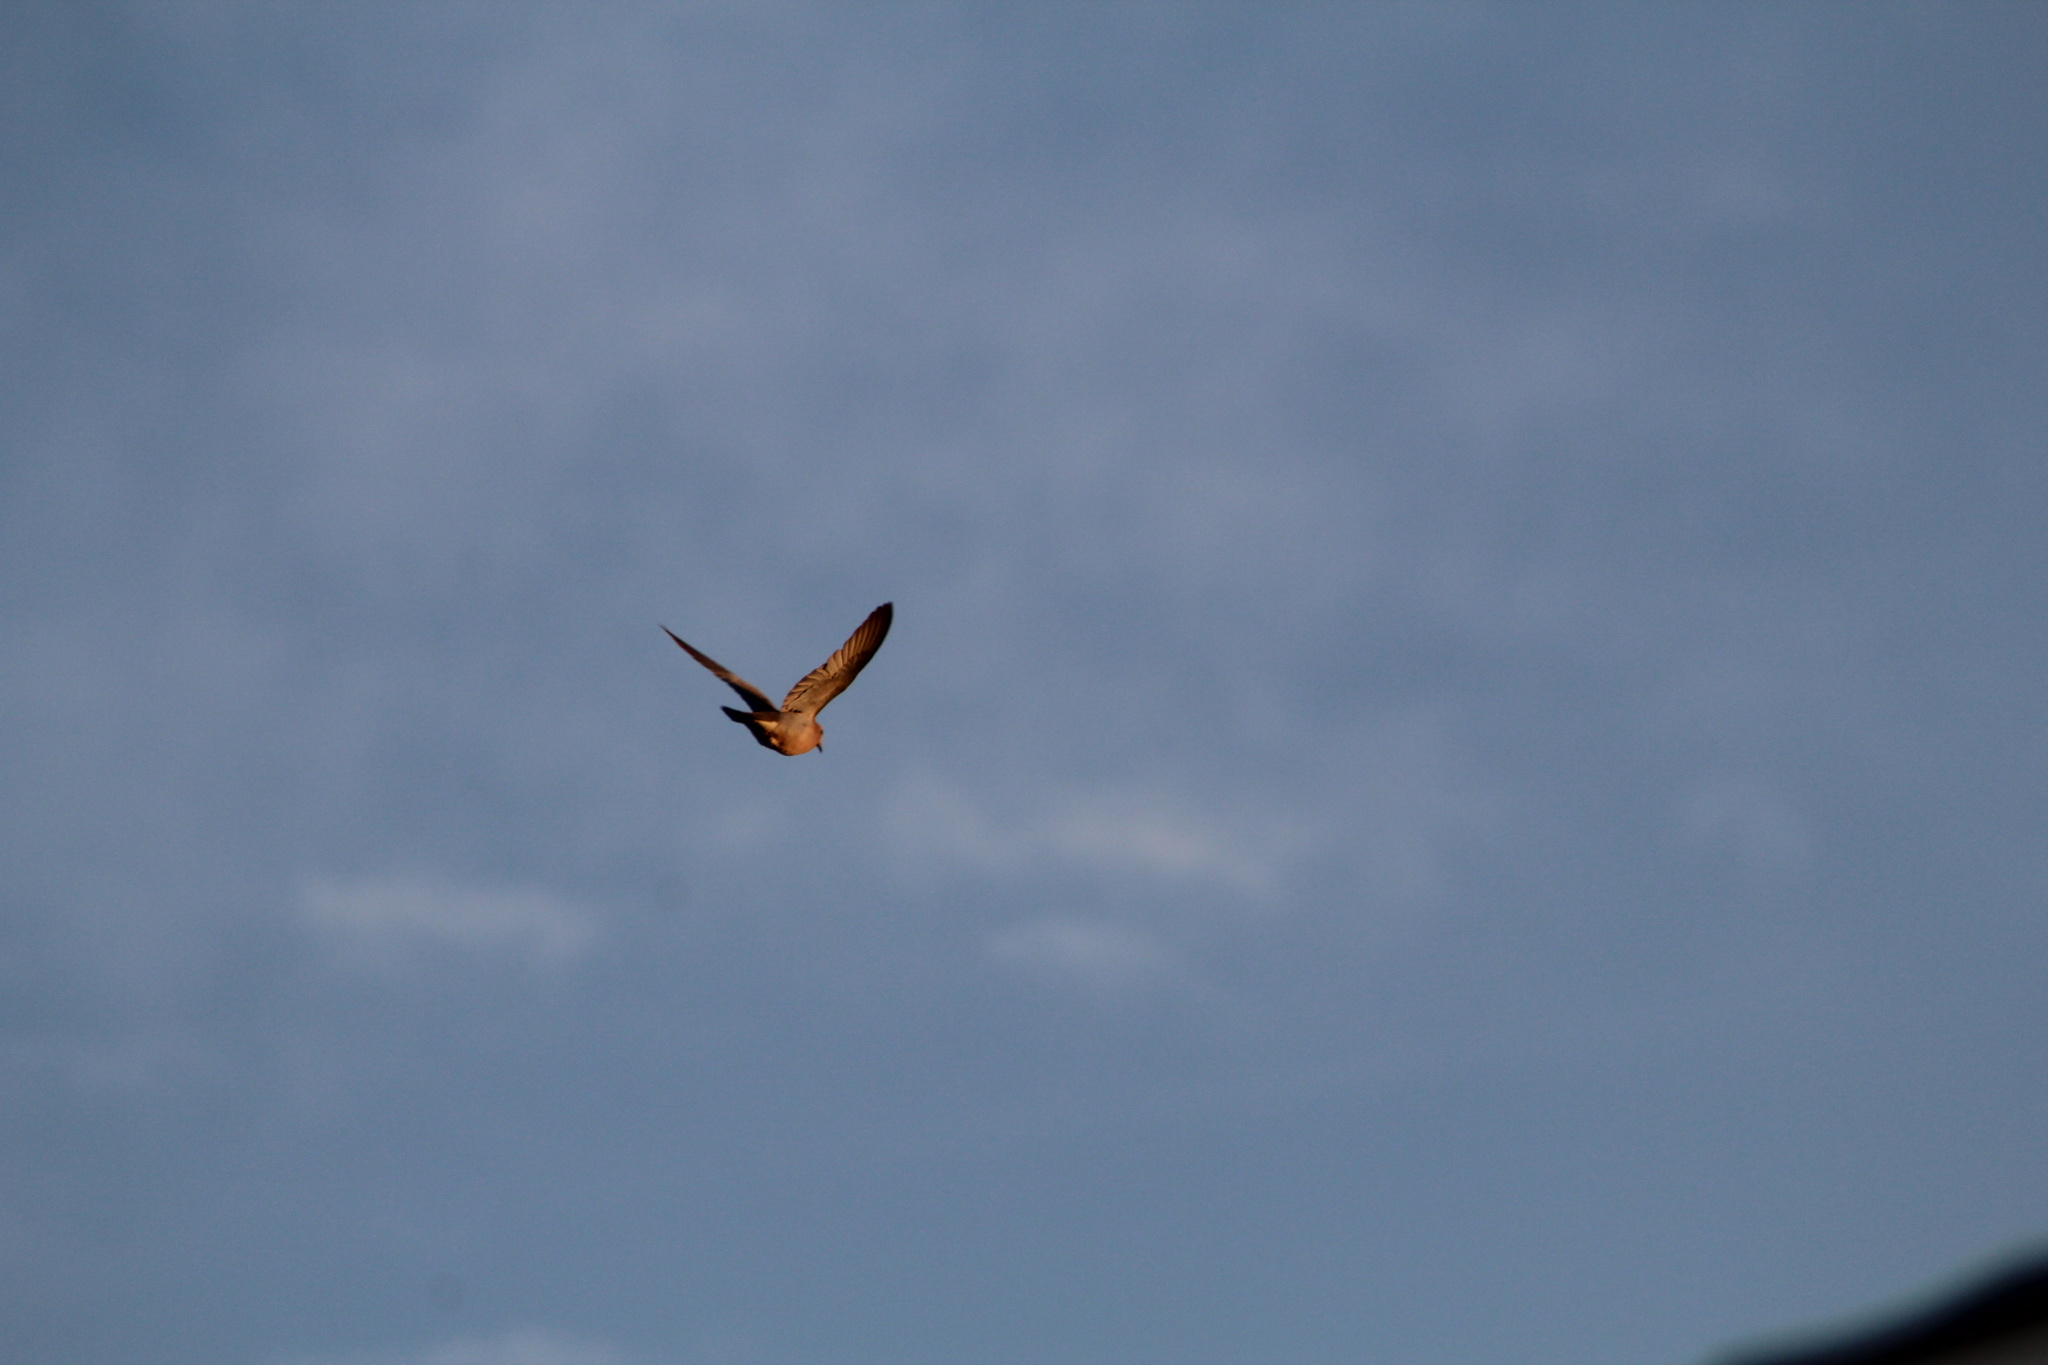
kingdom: Animalia
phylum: Chordata
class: Aves
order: Columbiformes
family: Columbidae
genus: Zenaida
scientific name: Zenaida macroura
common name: Mourning dove
